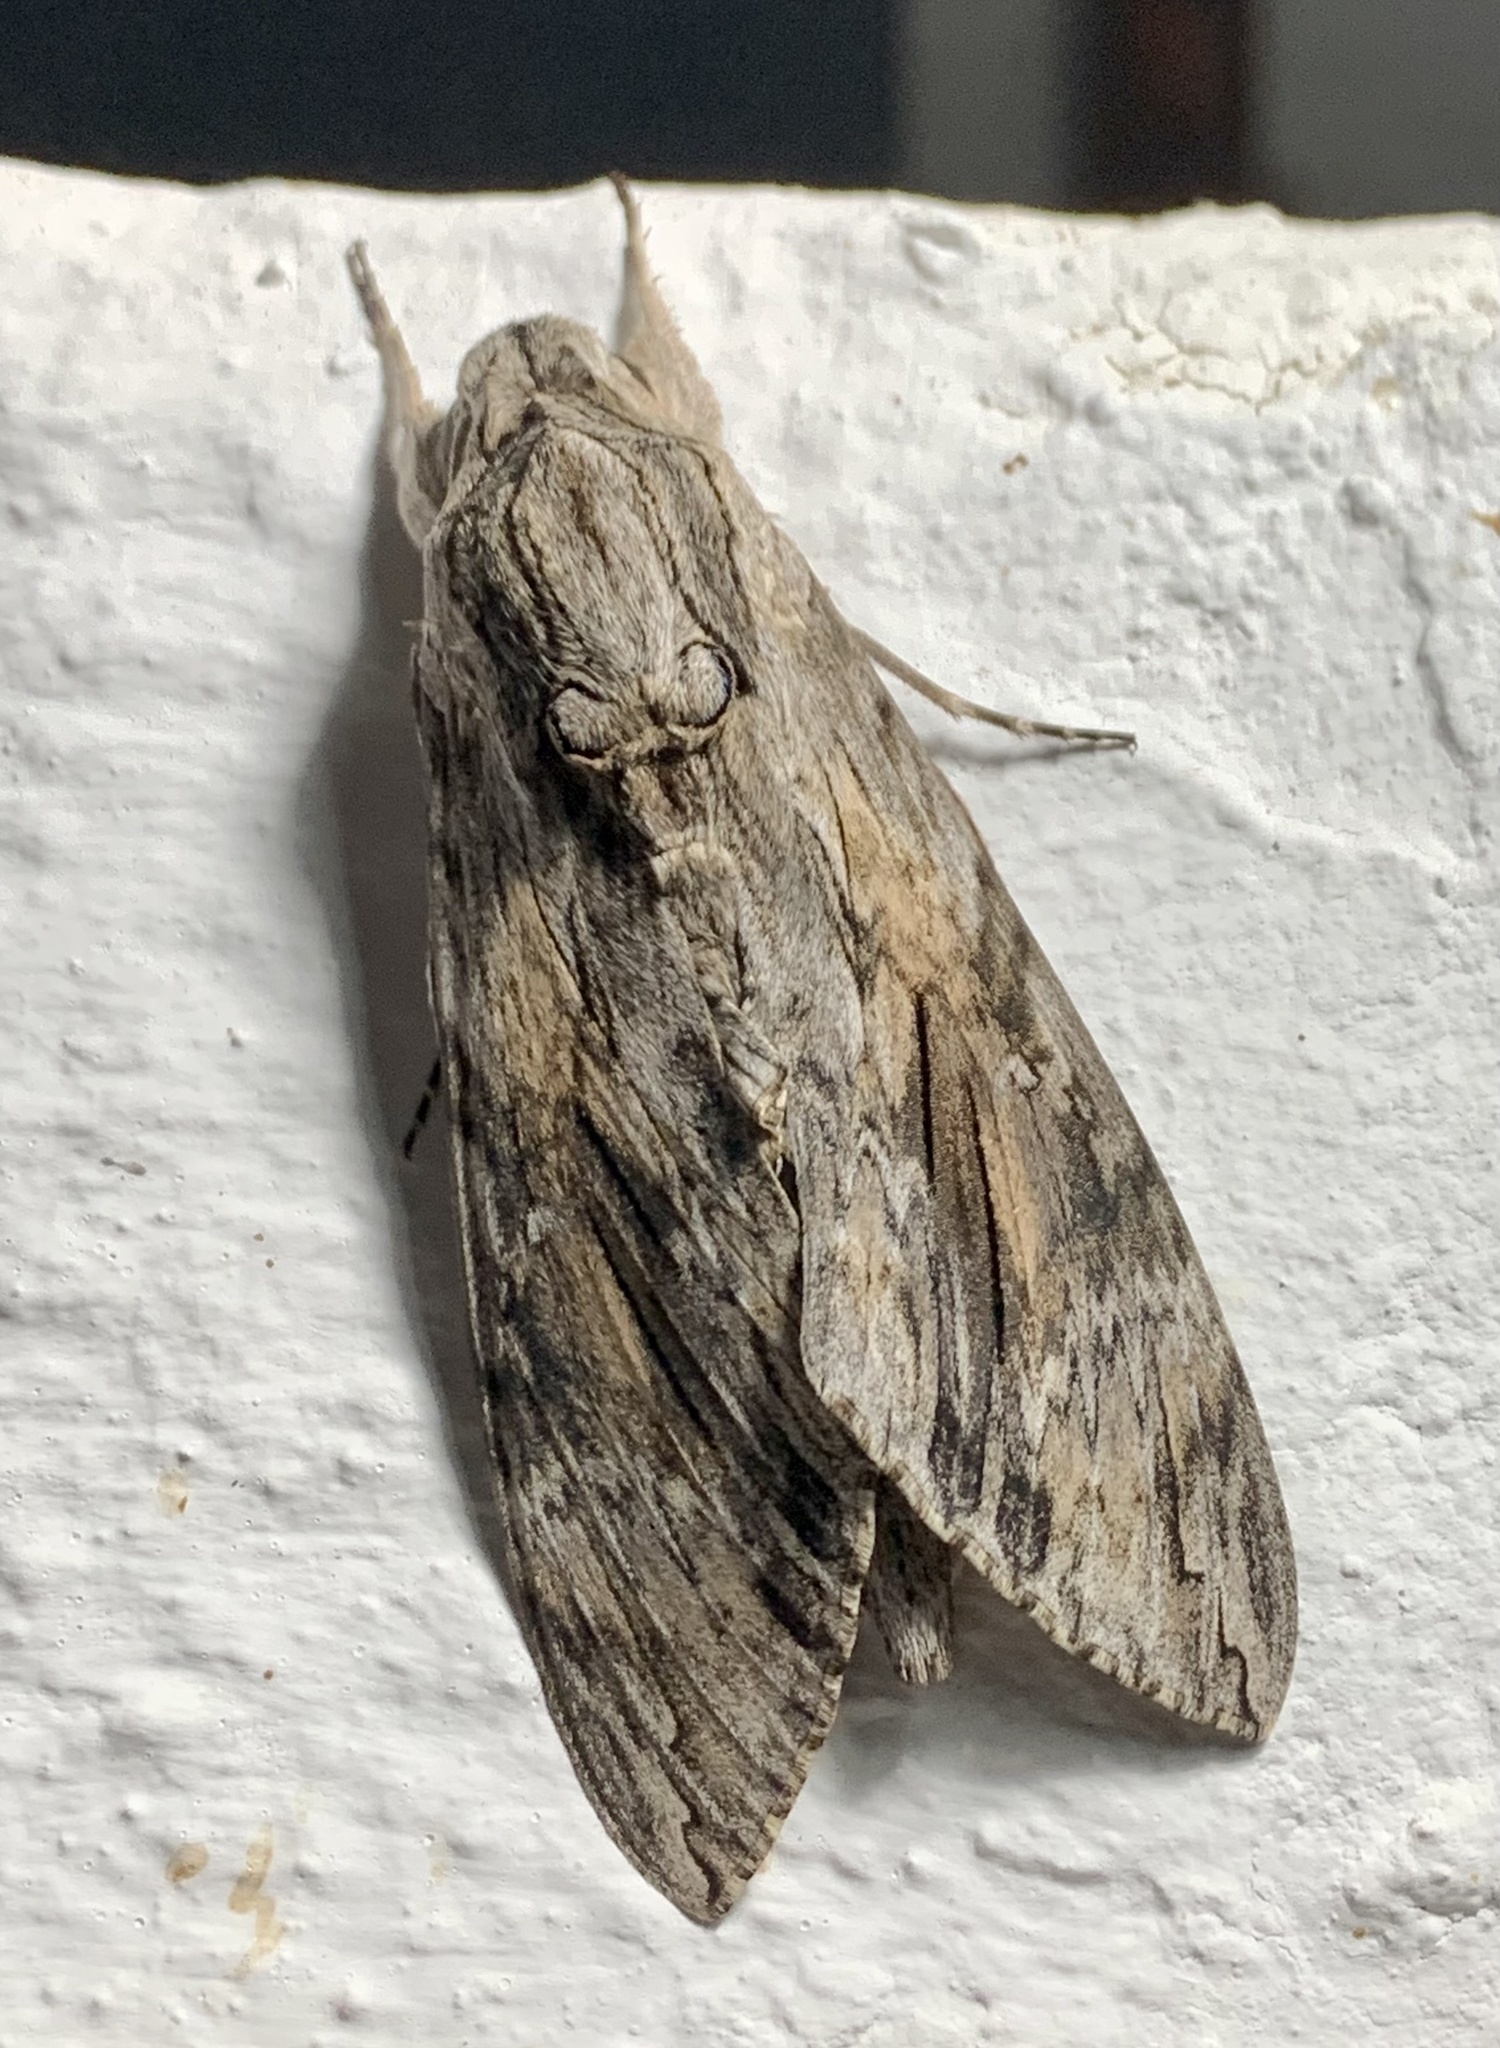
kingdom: Animalia
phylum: Arthropoda
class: Insecta
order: Lepidoptera
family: Sphingidae
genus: Agrius
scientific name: Agrius convolvuli
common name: Convolvulus hawkmoth
